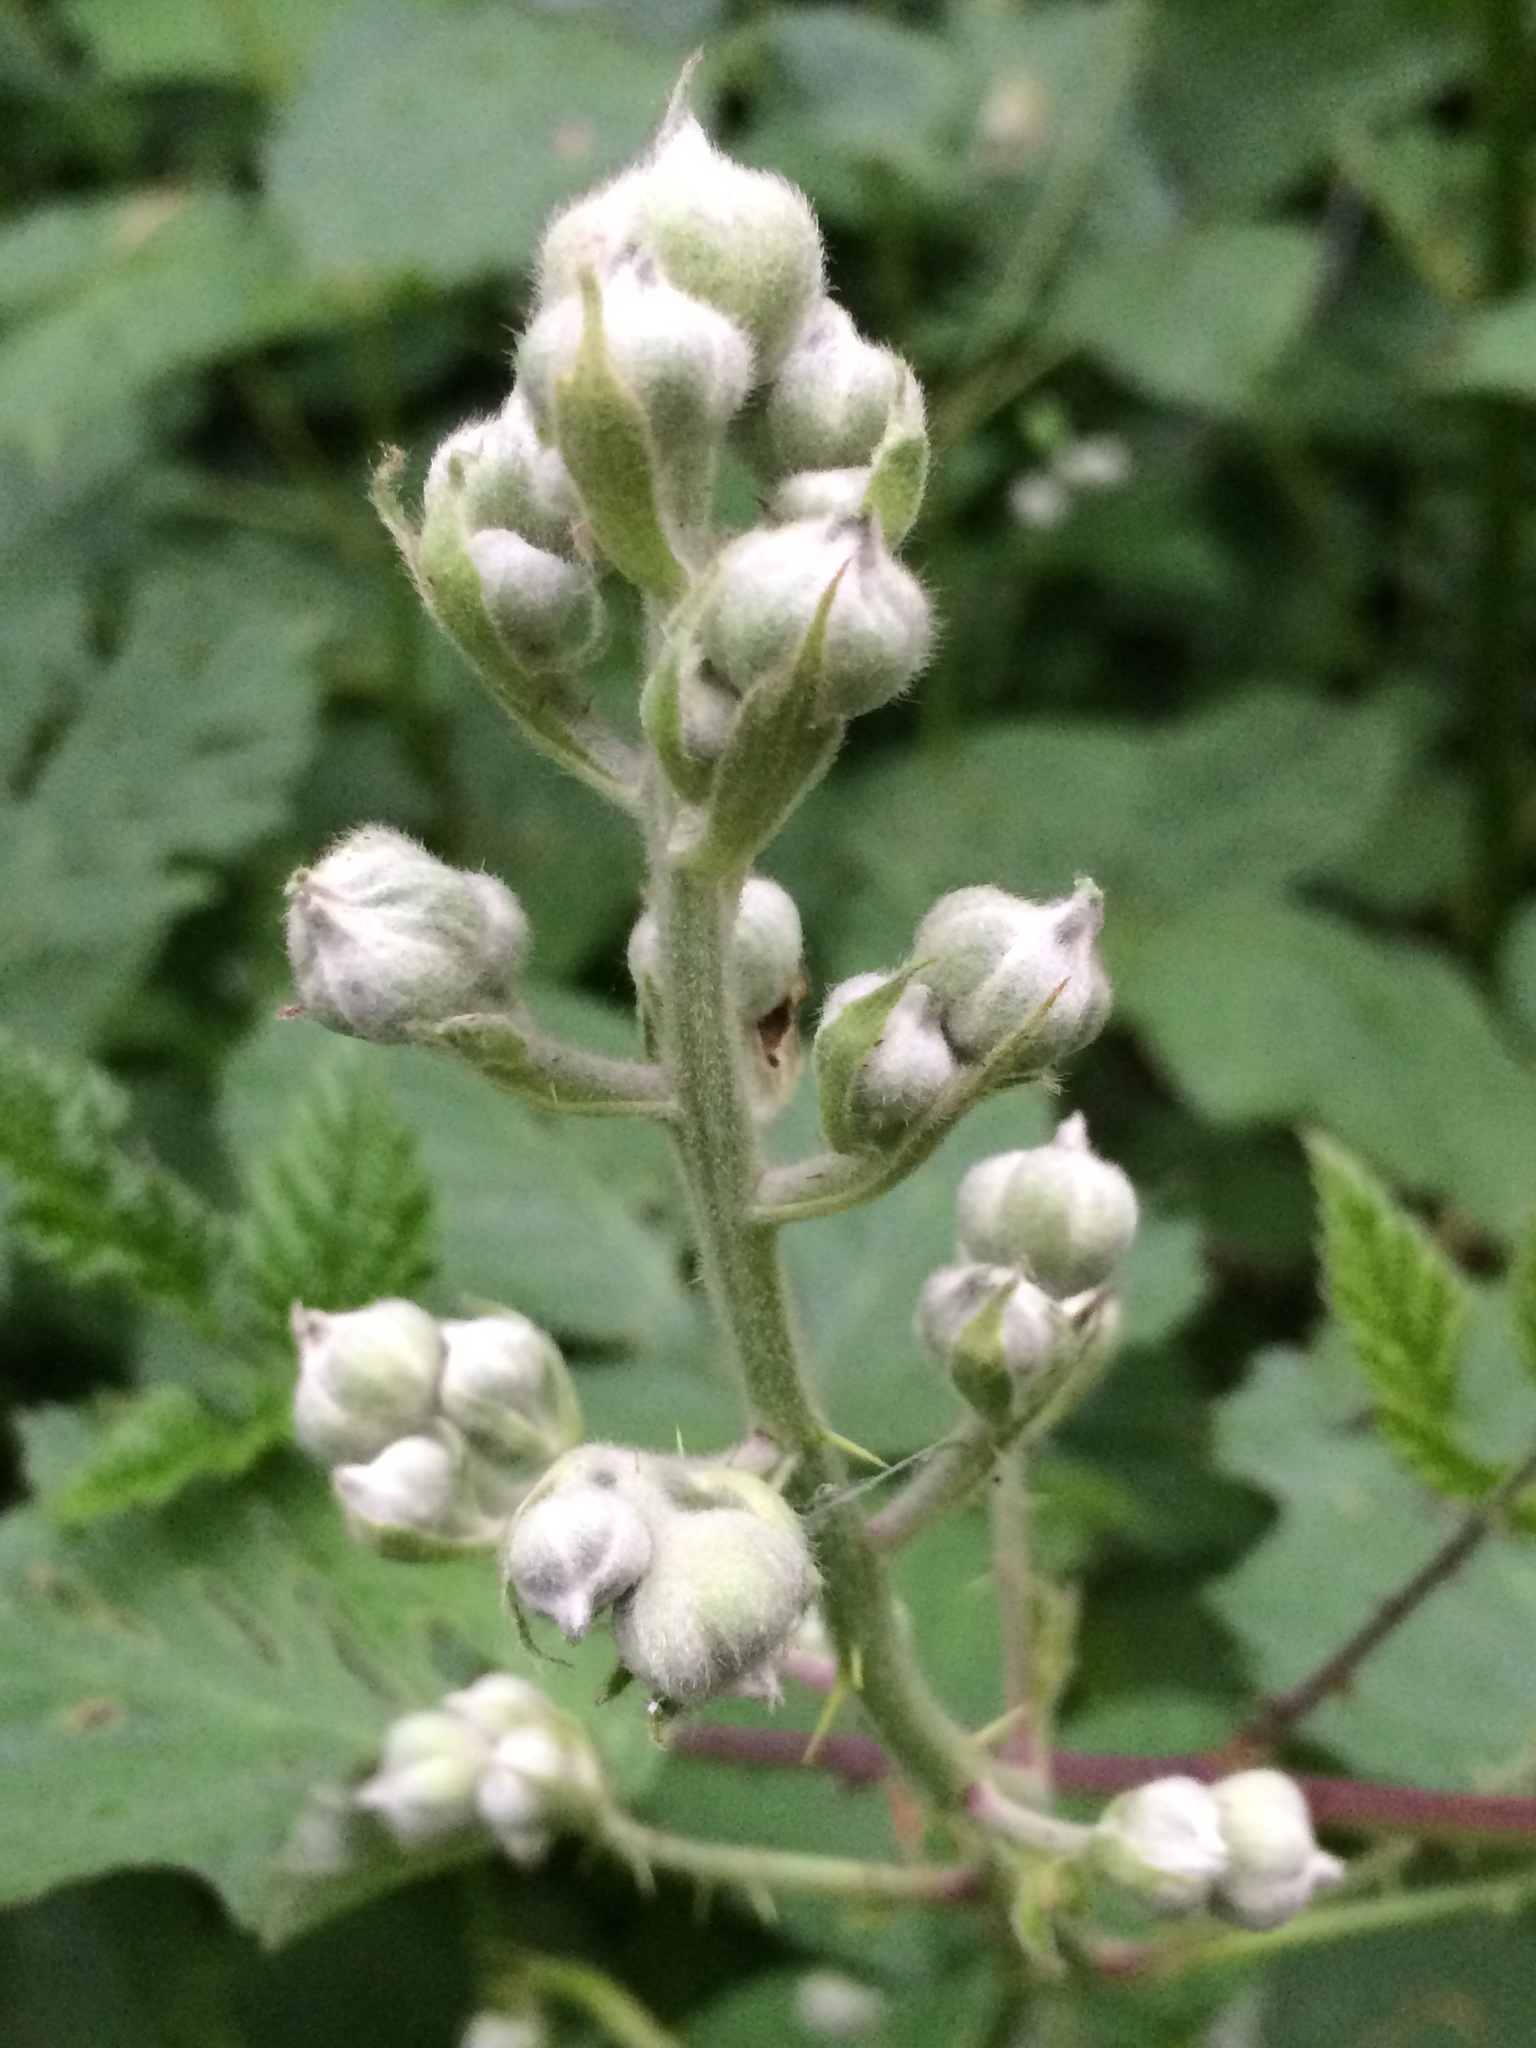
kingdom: Plantae
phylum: Tracheophyta
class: Magnoliopsida
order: Rosales
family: Rosaceae
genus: Rubus
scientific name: Rubus armeniacus
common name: Himalayan blackberry
